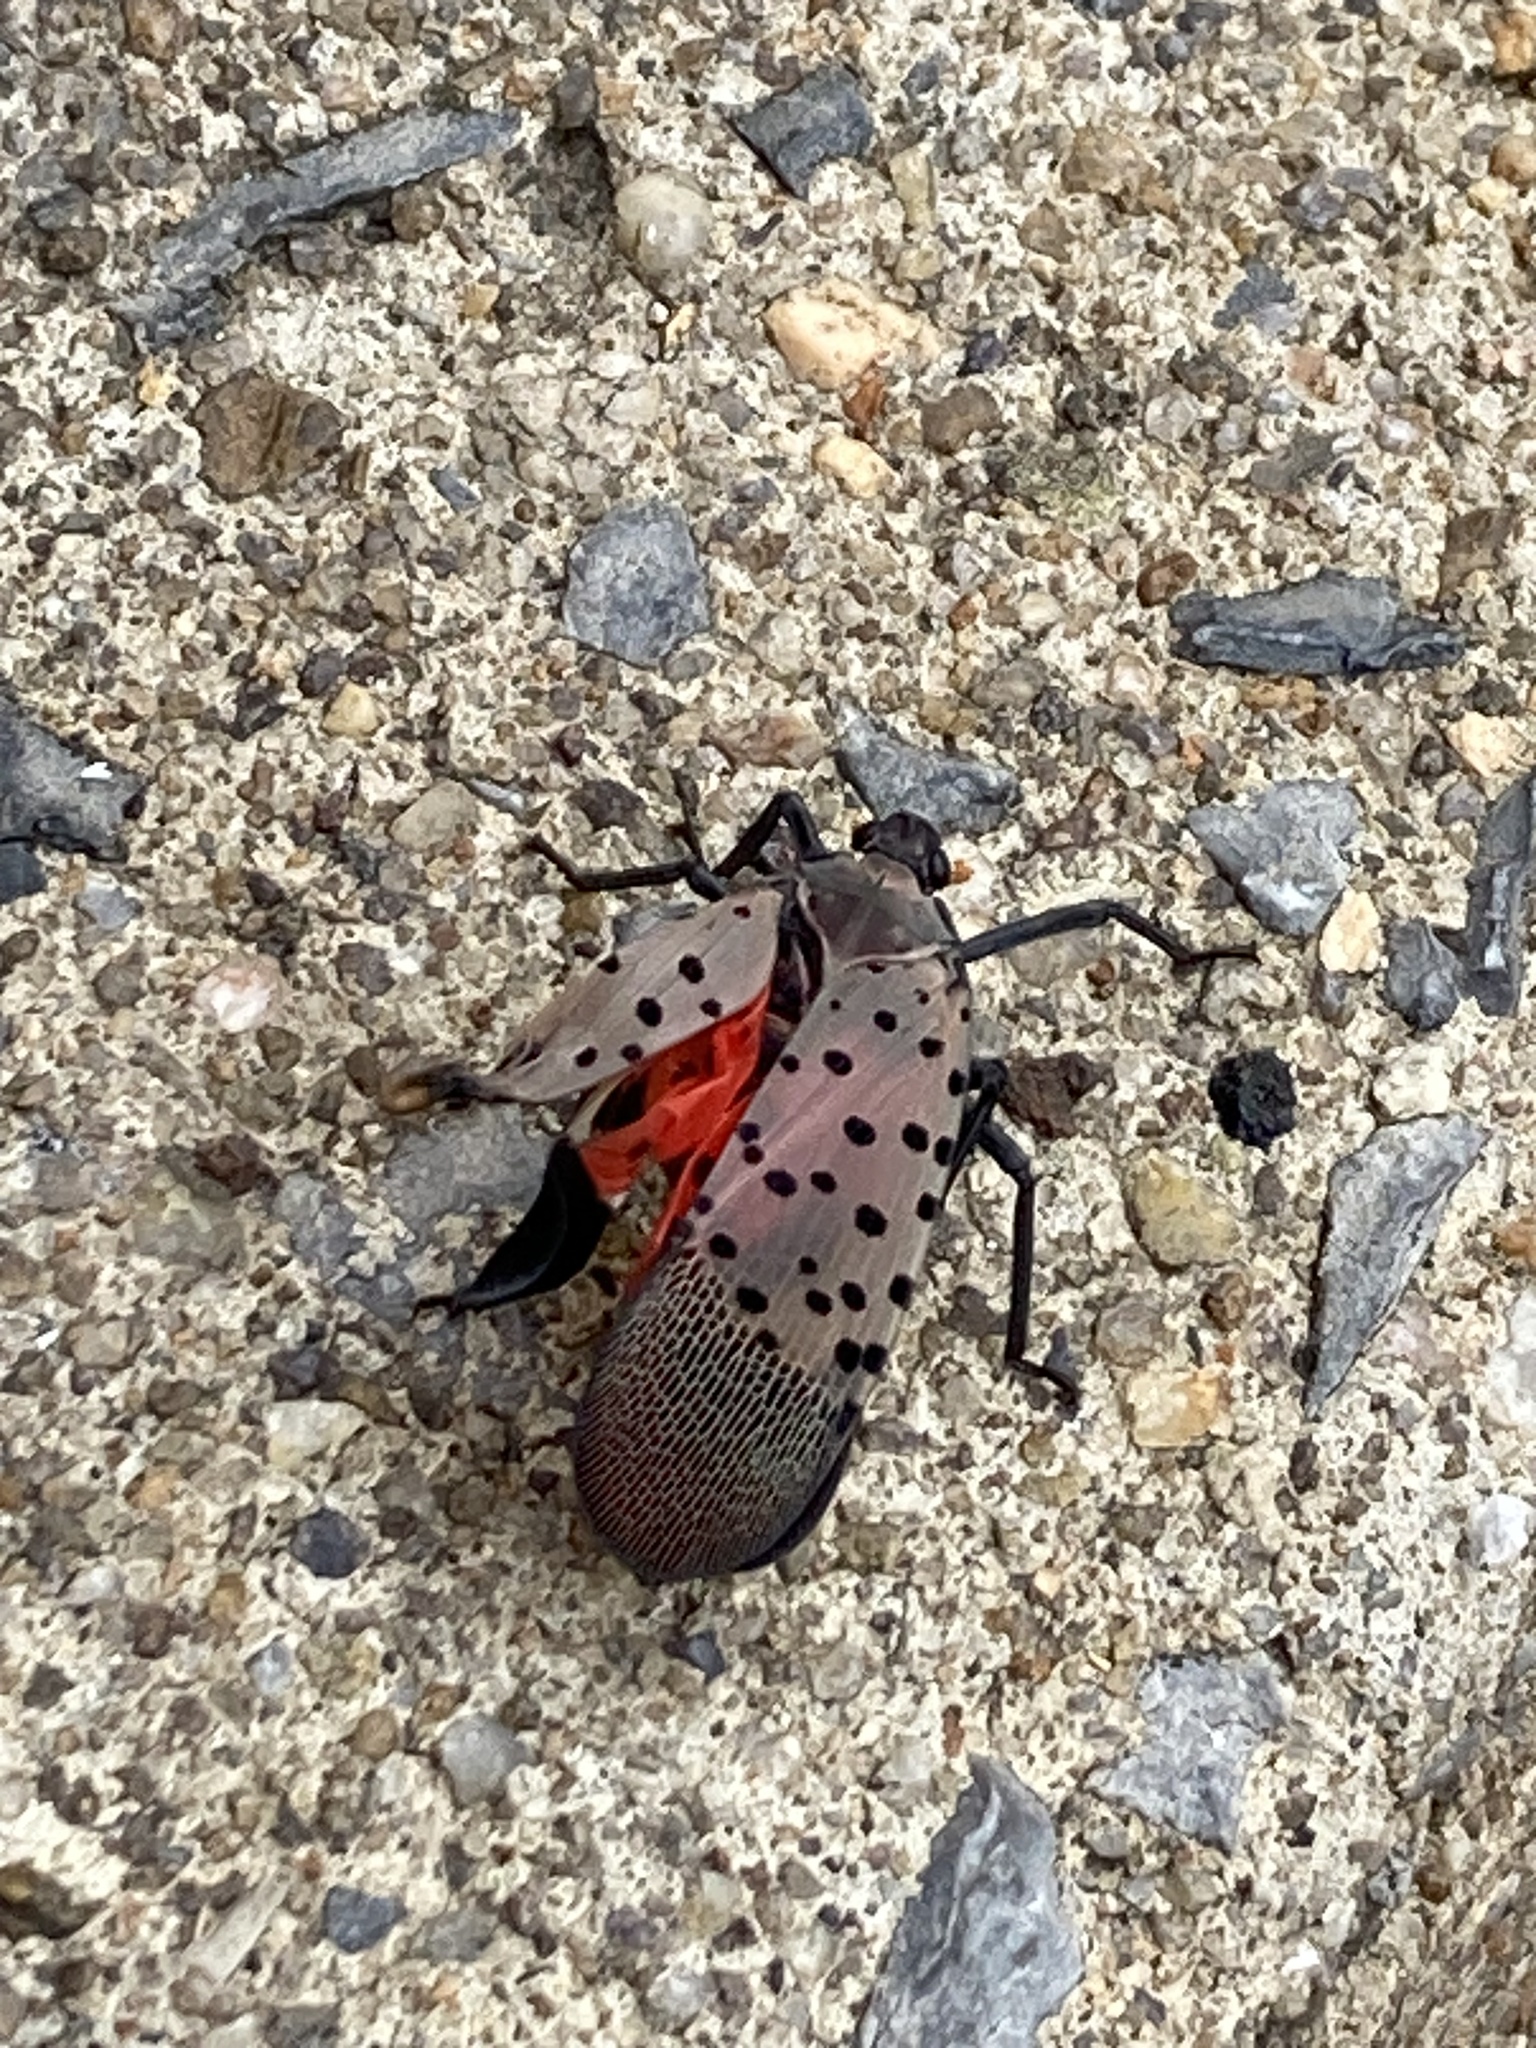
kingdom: Animalia
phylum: Arthropoda
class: Insecta
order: Hemiptera
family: Fulgoridae
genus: Lycorma
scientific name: Lycorma delicatula
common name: Spotted lanternfly
